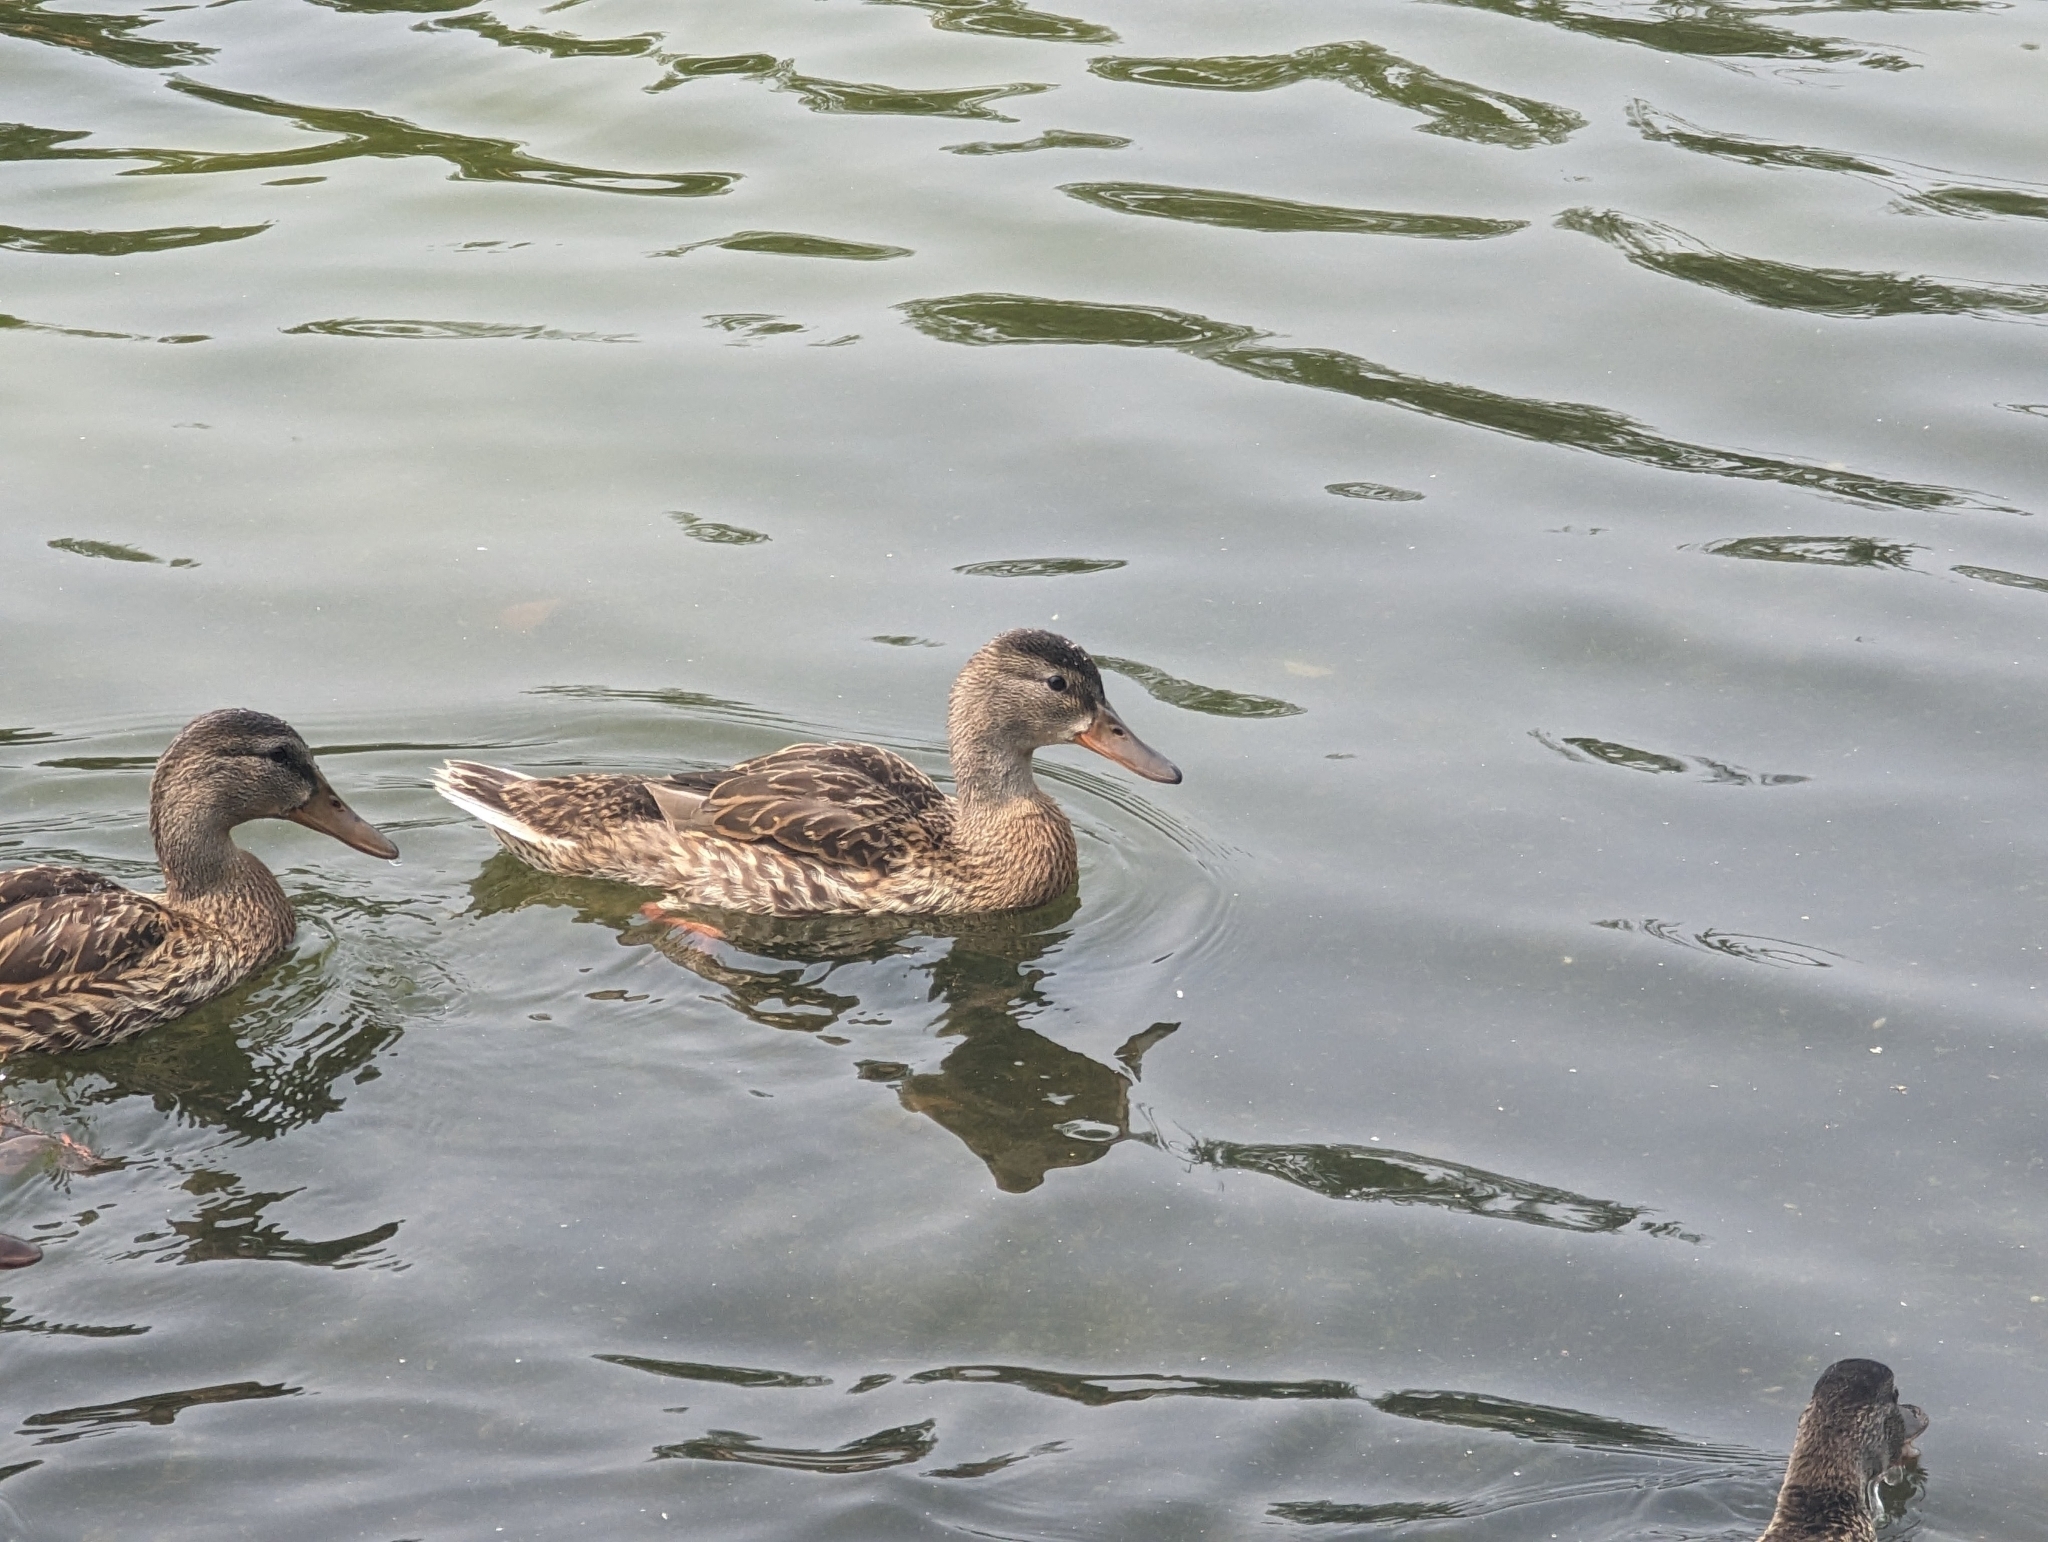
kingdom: Animalia
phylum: Chordata
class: Aves
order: Anseriformes
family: Anatidae
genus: Anas
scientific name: Anas platyrhynchos
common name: Mallard
